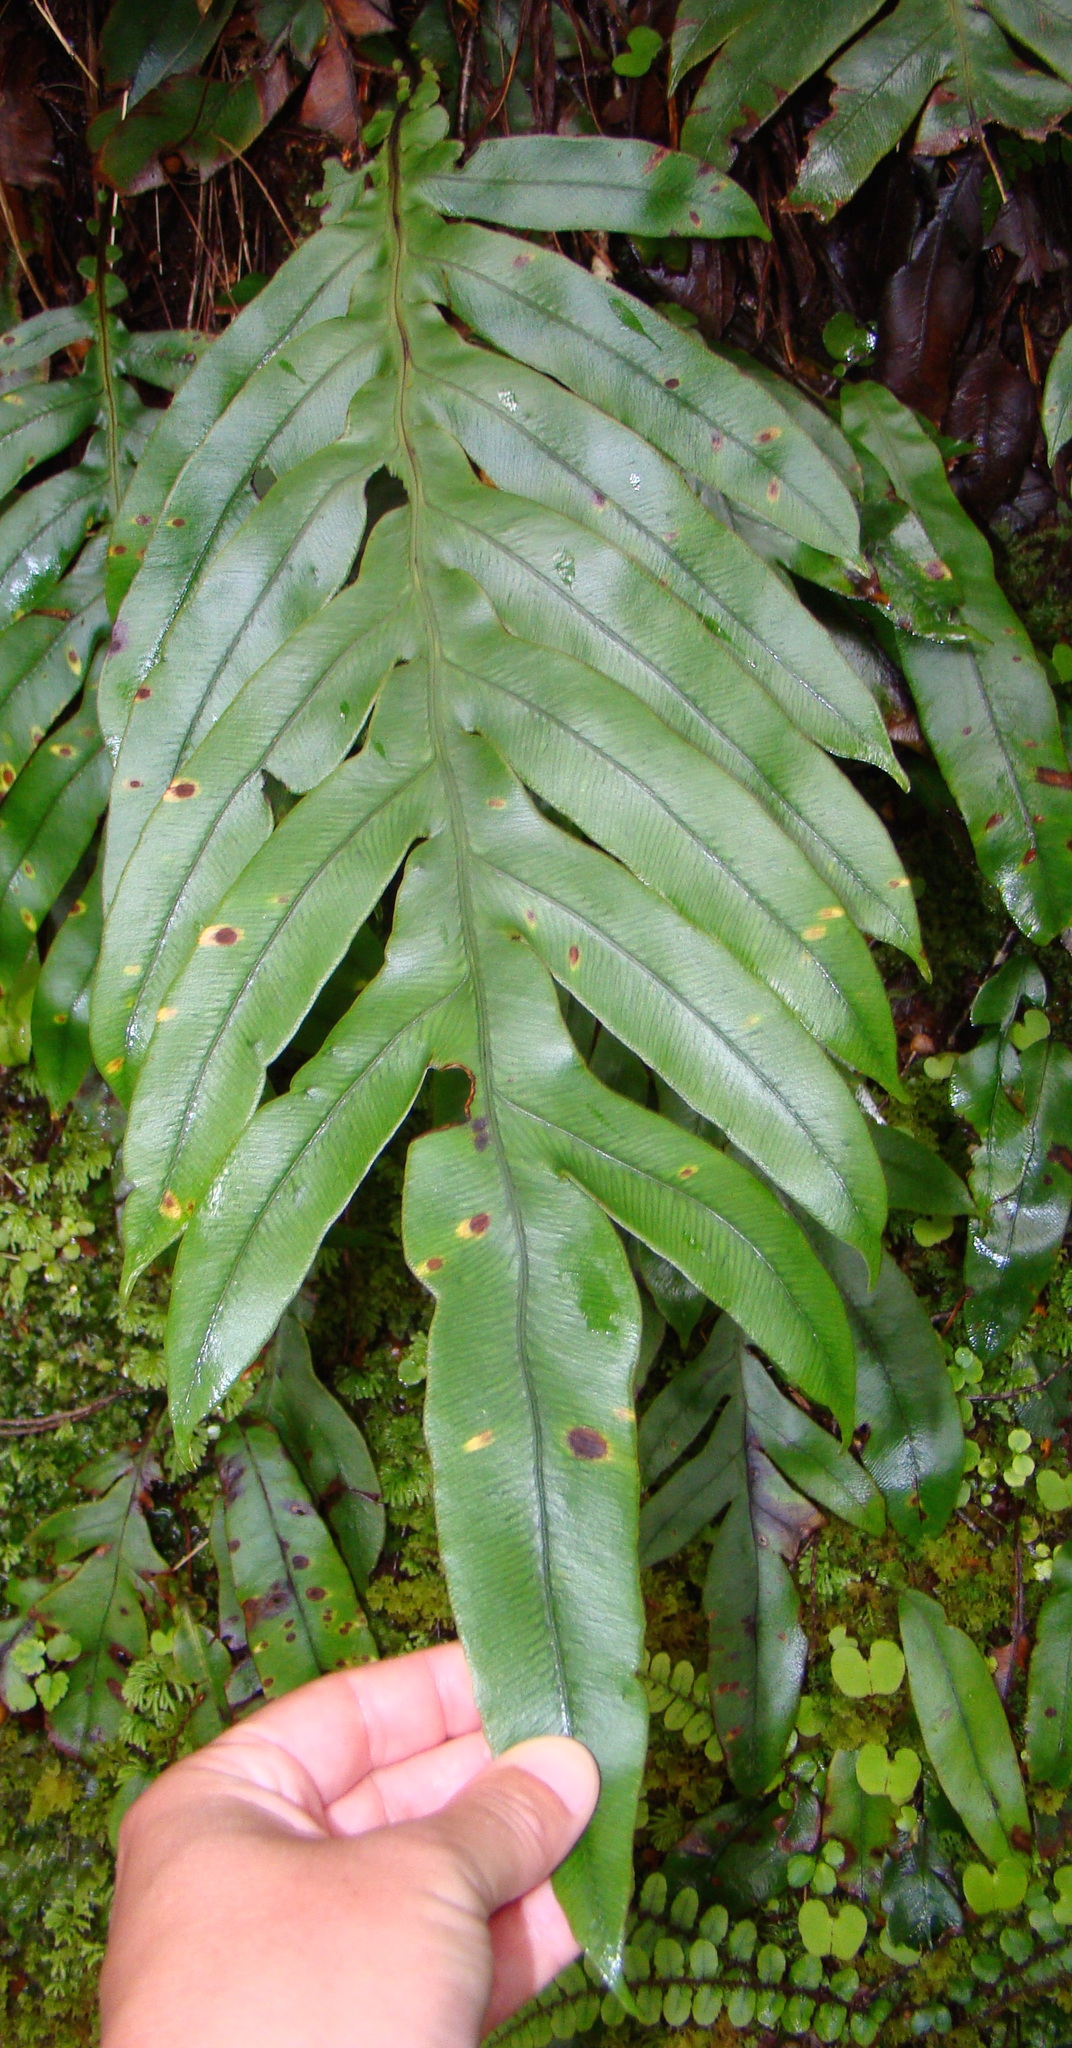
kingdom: Plantae
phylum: Tracheophyta
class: Polypodiopsida
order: Polypodiales
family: Blechnaceae
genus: Austroblechnum
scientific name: Austroblechnum colensoi
